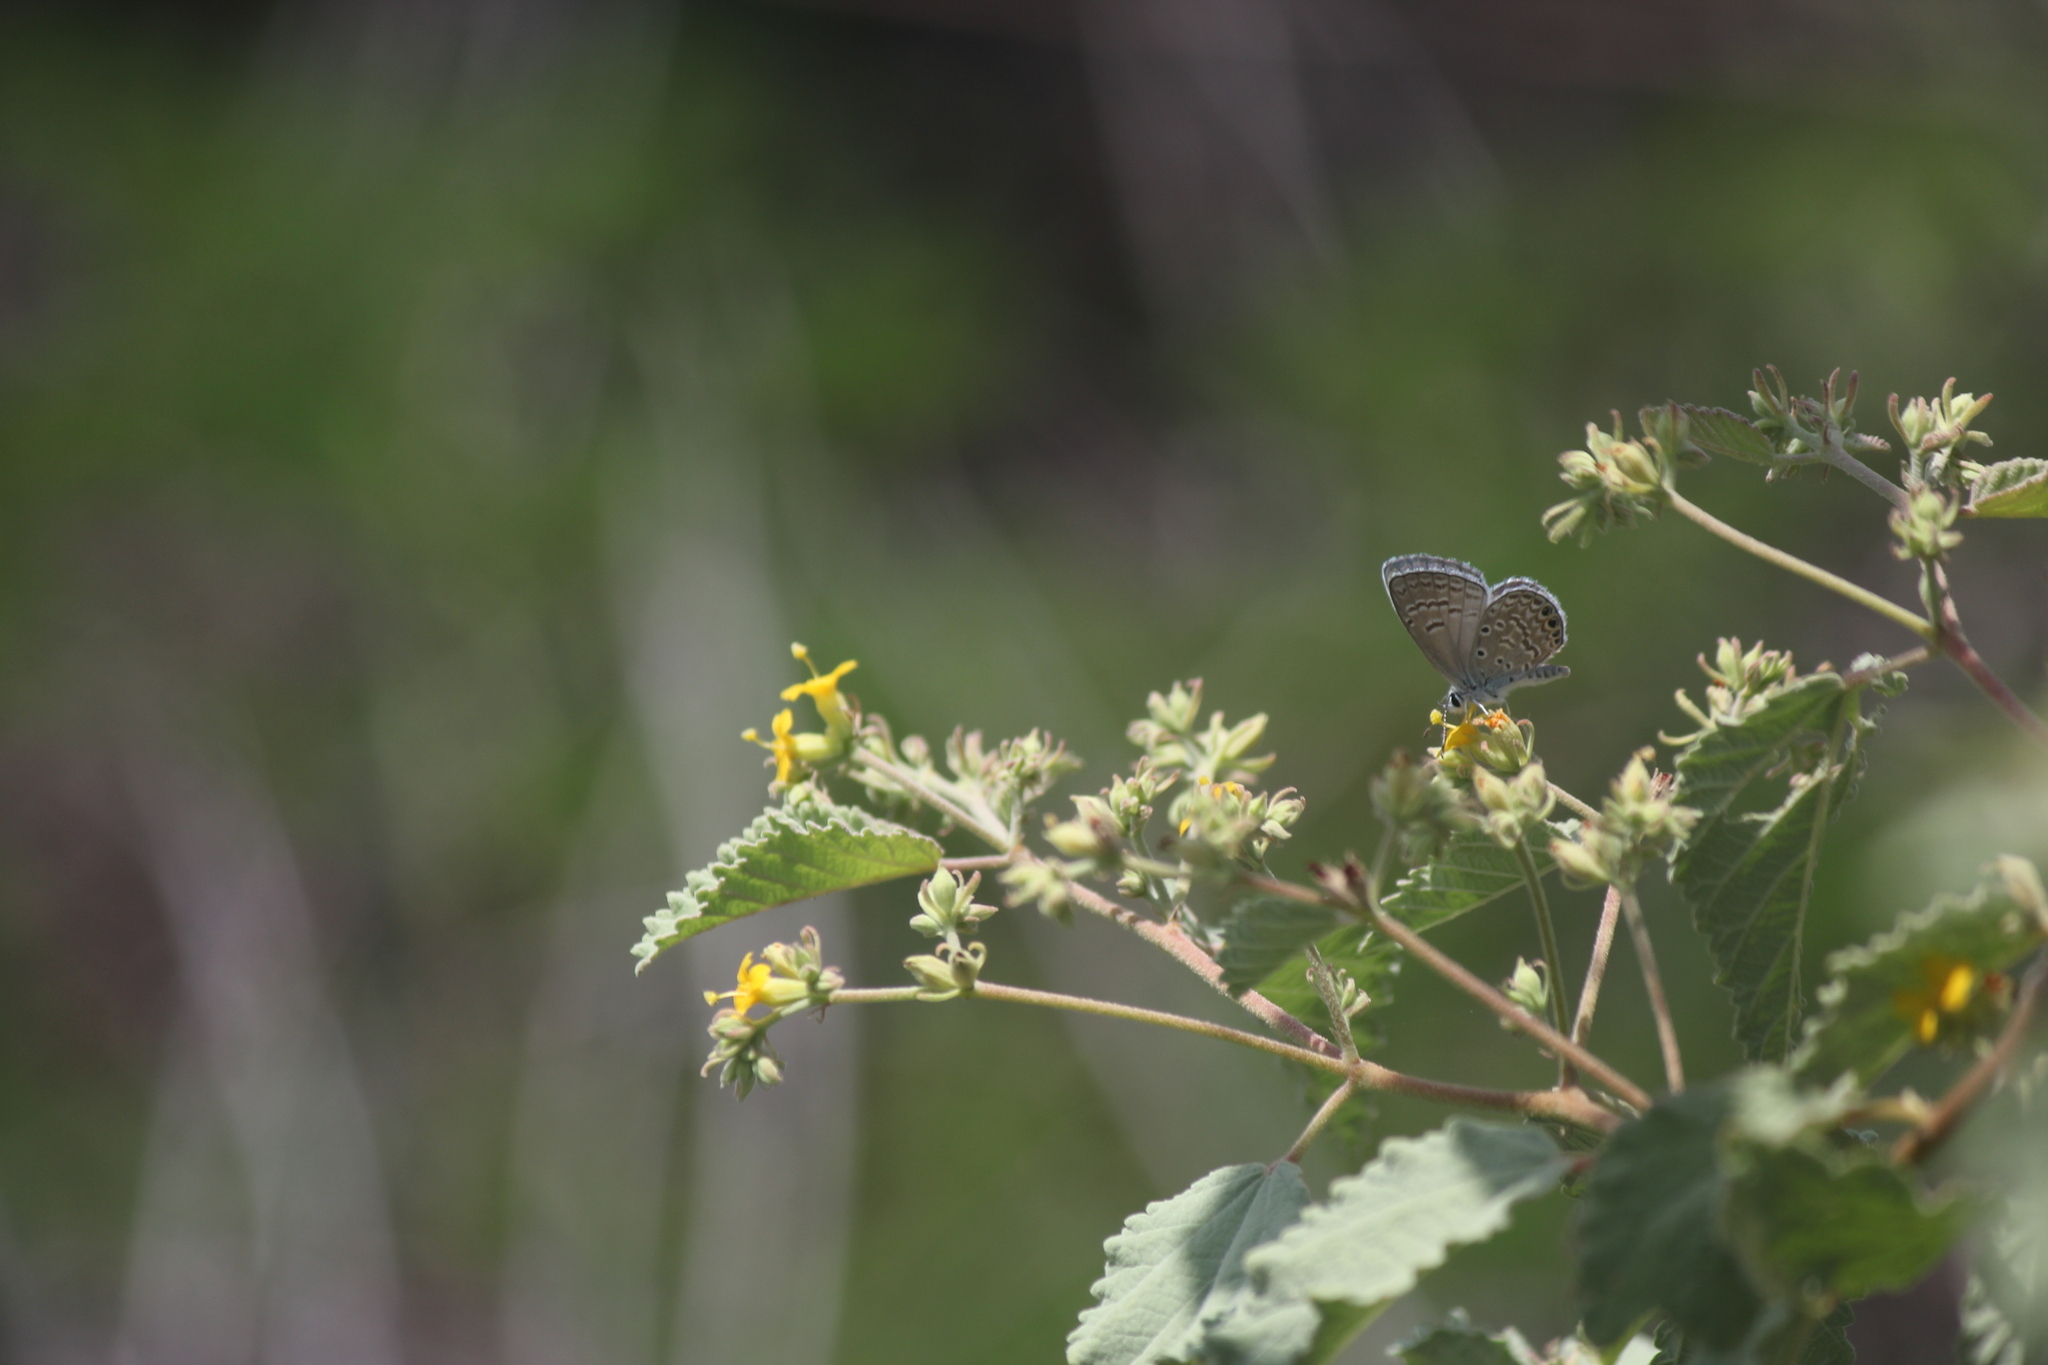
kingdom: Animalia
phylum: Arthropoda
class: Insecta
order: Lepidoptera
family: Lycaenidae
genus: Hemiargus
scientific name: Hemiargus ramon
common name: Ramon blue
